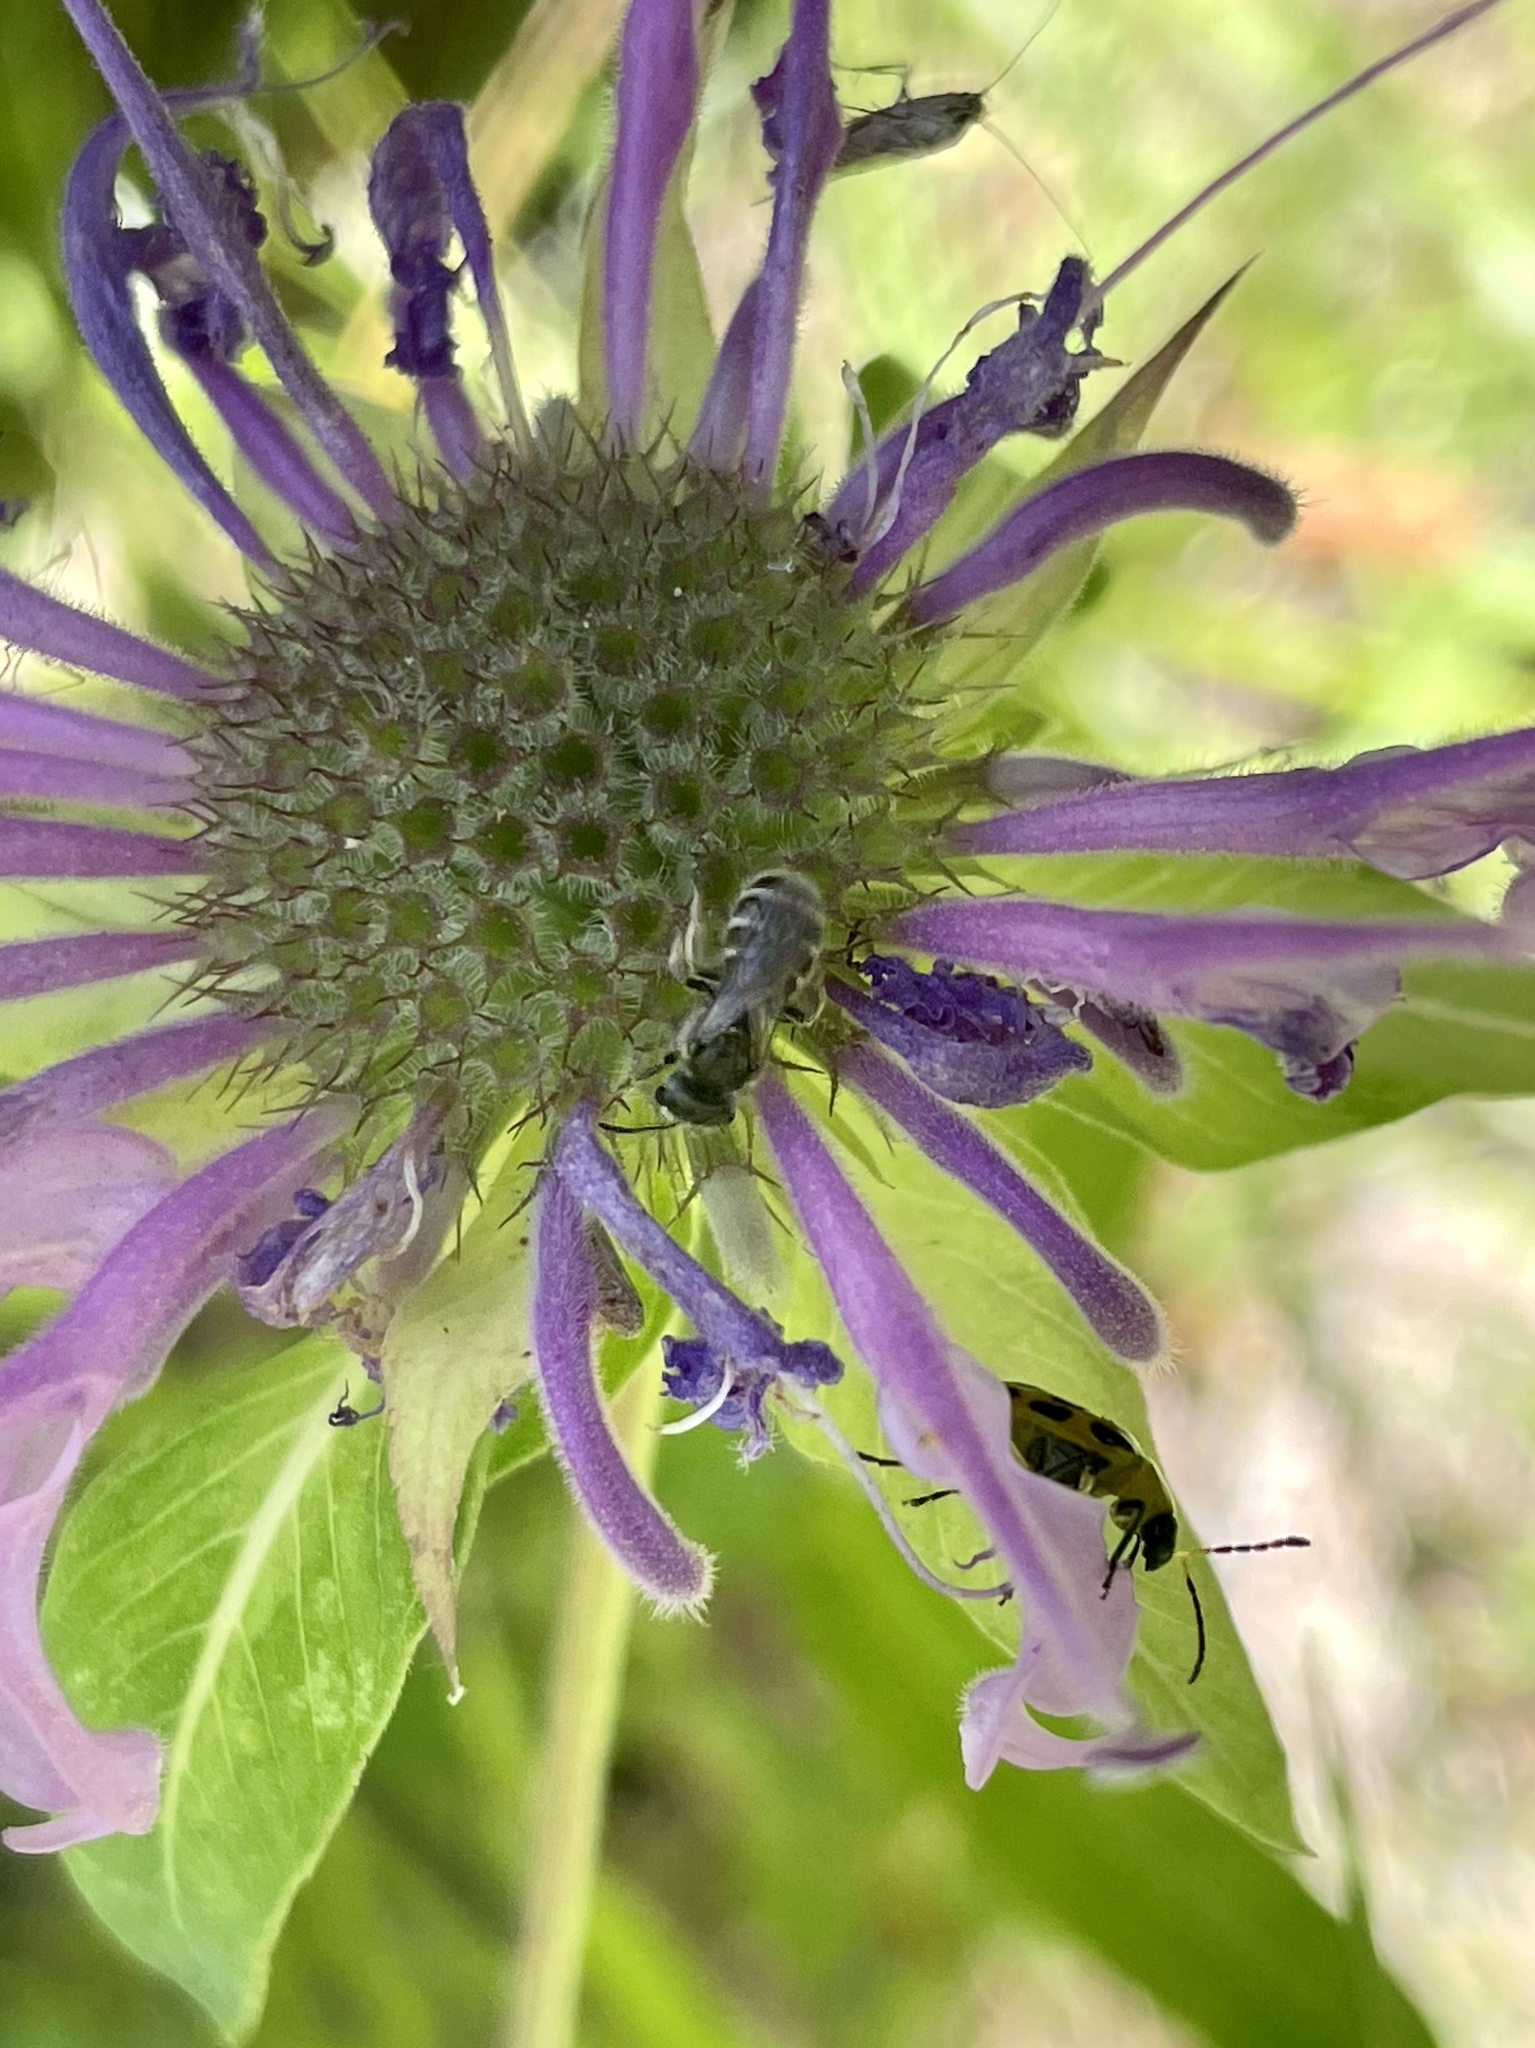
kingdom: Plantae
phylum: Tracheophyta
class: Magnoliopsida
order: Lamiales
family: Lamiaceae
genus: Monarda
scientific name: Monarda fistulosa
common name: Purple beebalm
